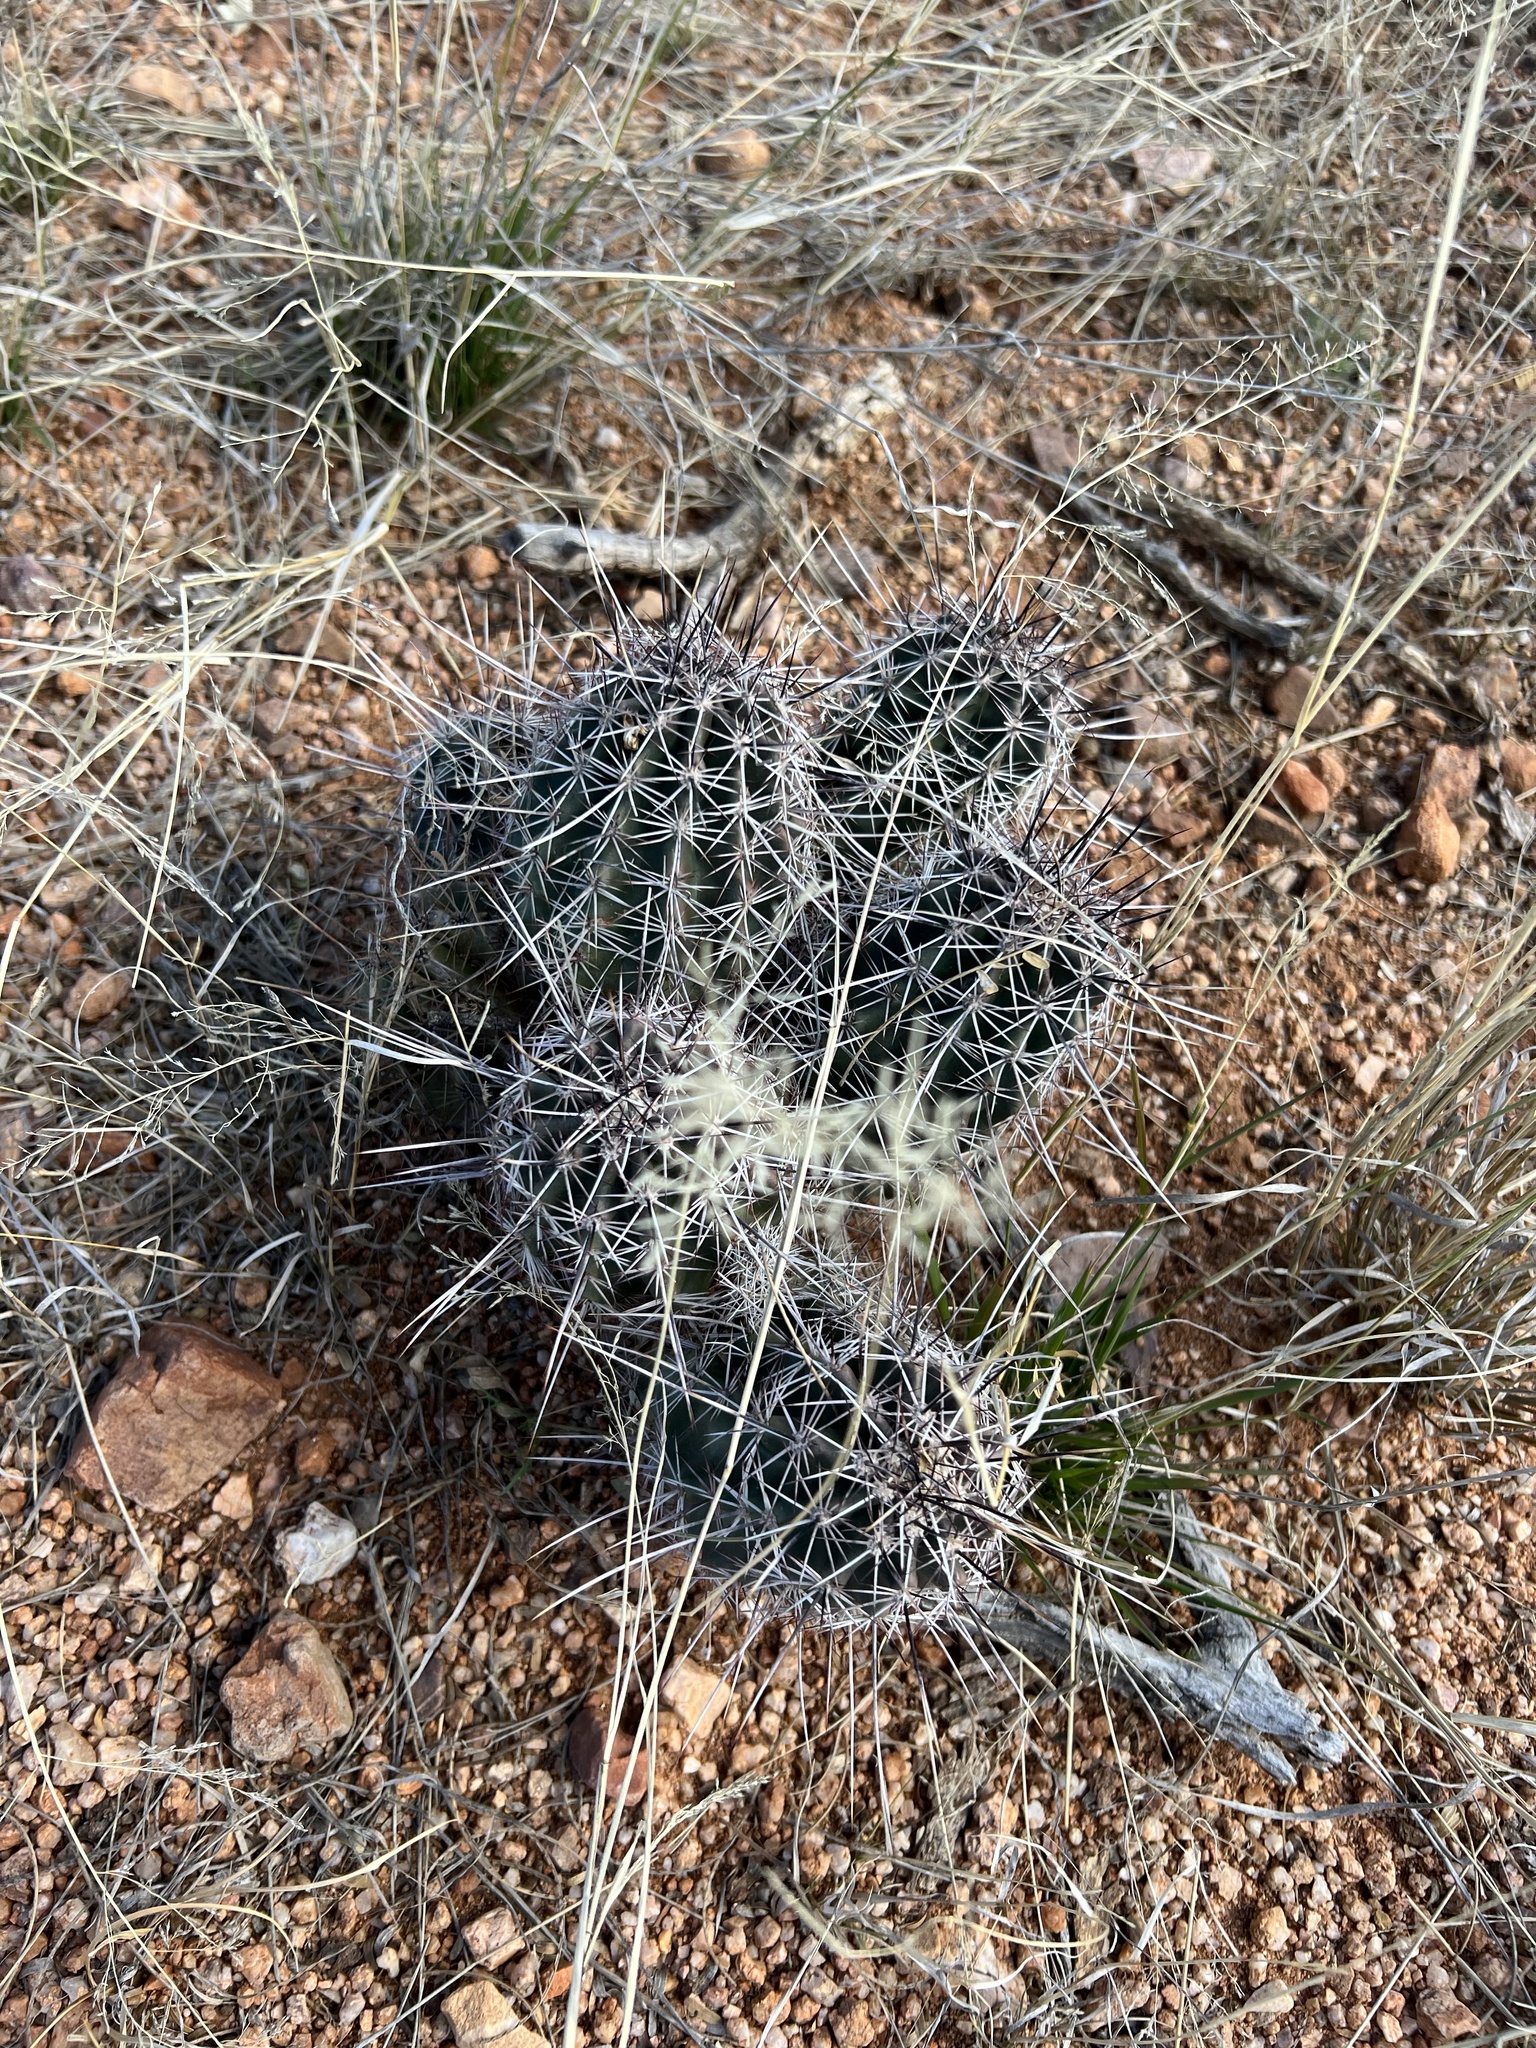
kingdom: Plantae
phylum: Tracheophyta
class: Magnoliopsida
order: Caryophyllales
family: Cactaceae
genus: Echinocereus
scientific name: Echinocereus fasciculatus
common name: Bundle hedgehog
